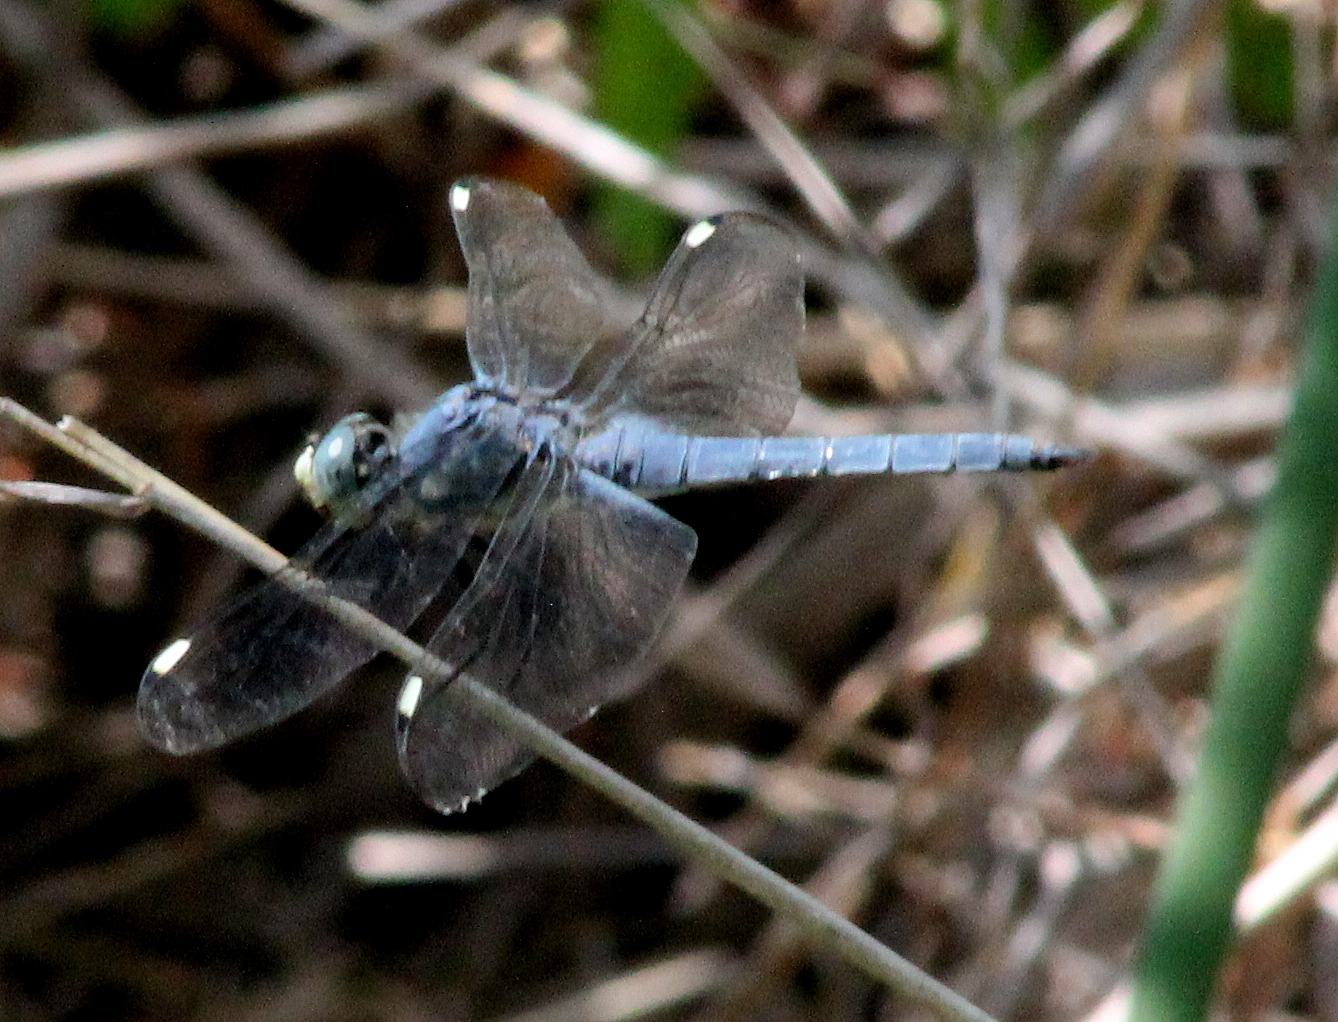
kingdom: Animalia
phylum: Arthropoda
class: Insecta
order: Odonata
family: Libellulidae
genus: Libellula
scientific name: Libellula comanche
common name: Comanche skimmer
